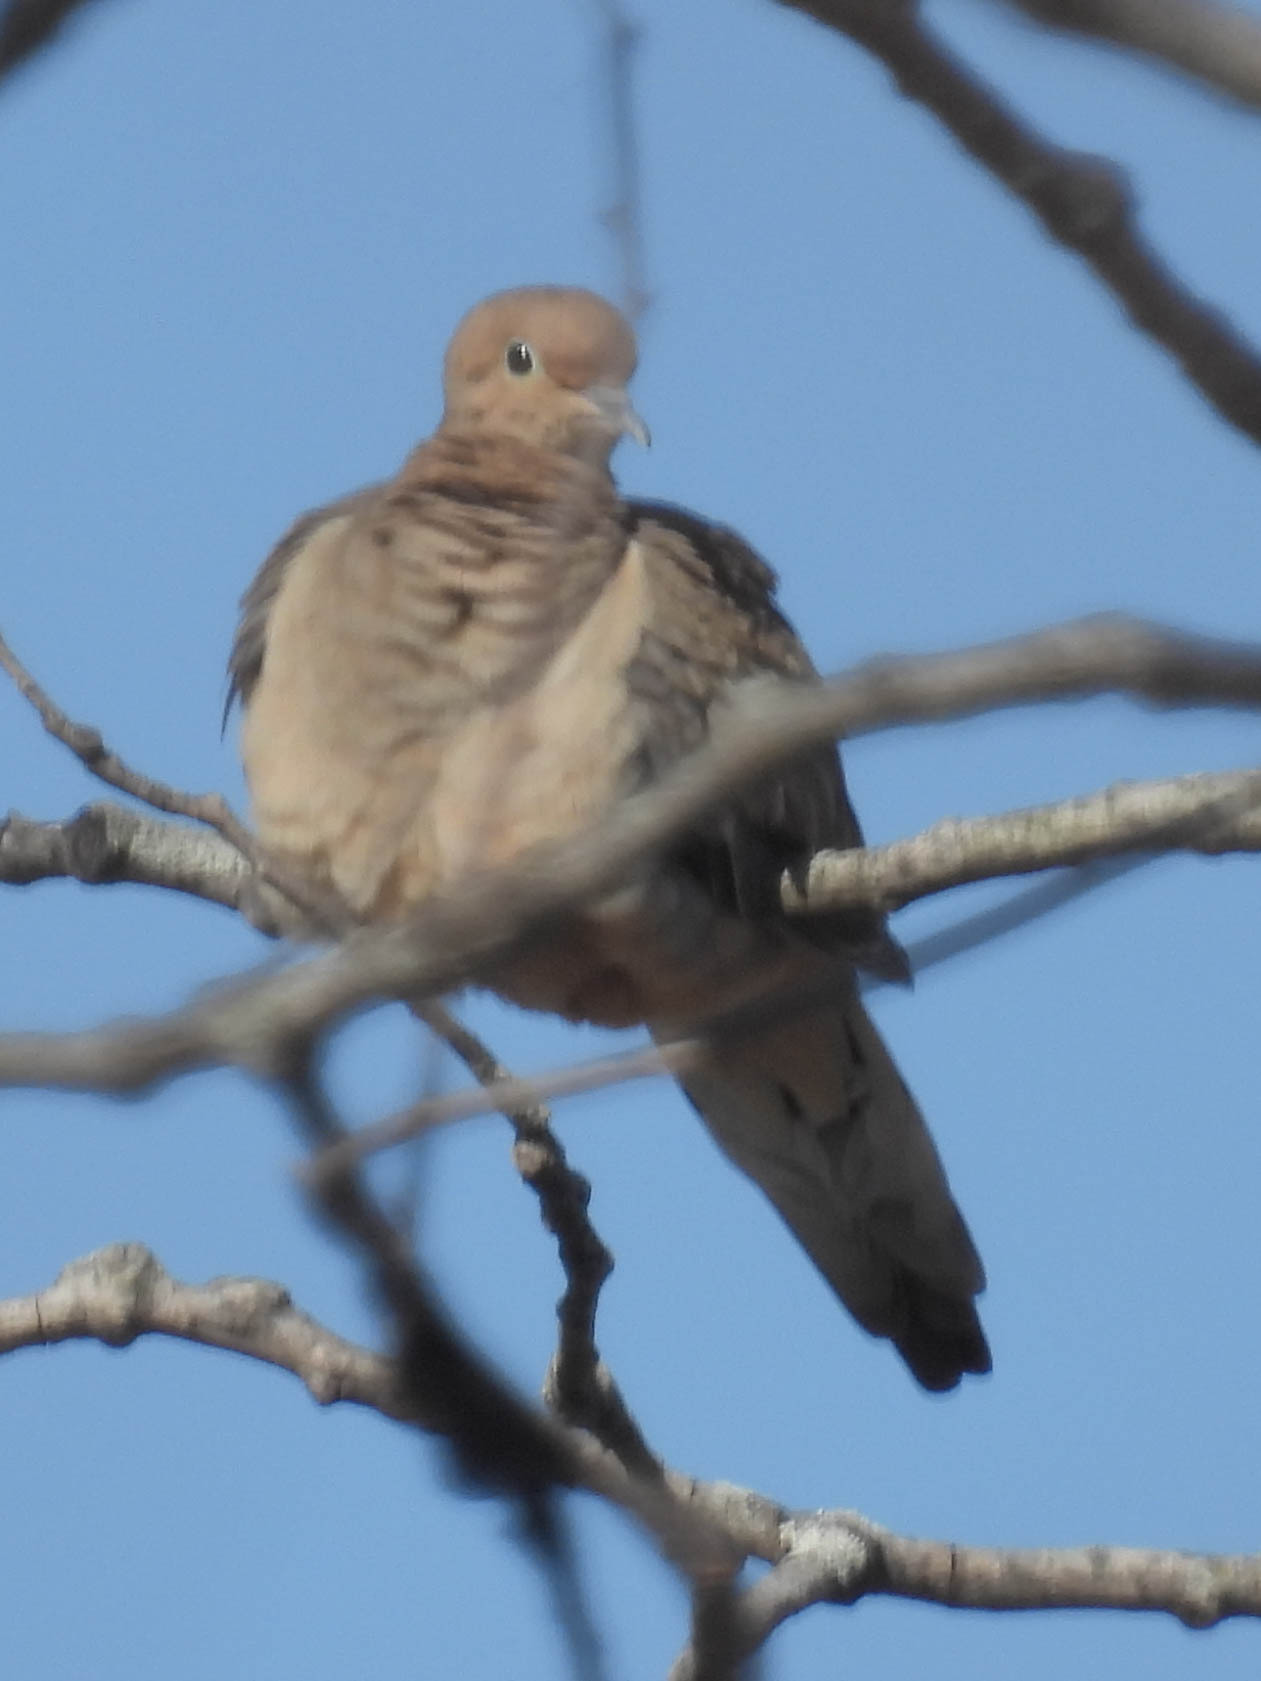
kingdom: Animalia
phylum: Chordata
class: Aves
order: Columbiformes
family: Columbidae
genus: Zenaida
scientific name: Zenaida macroura
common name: Mourning dove
